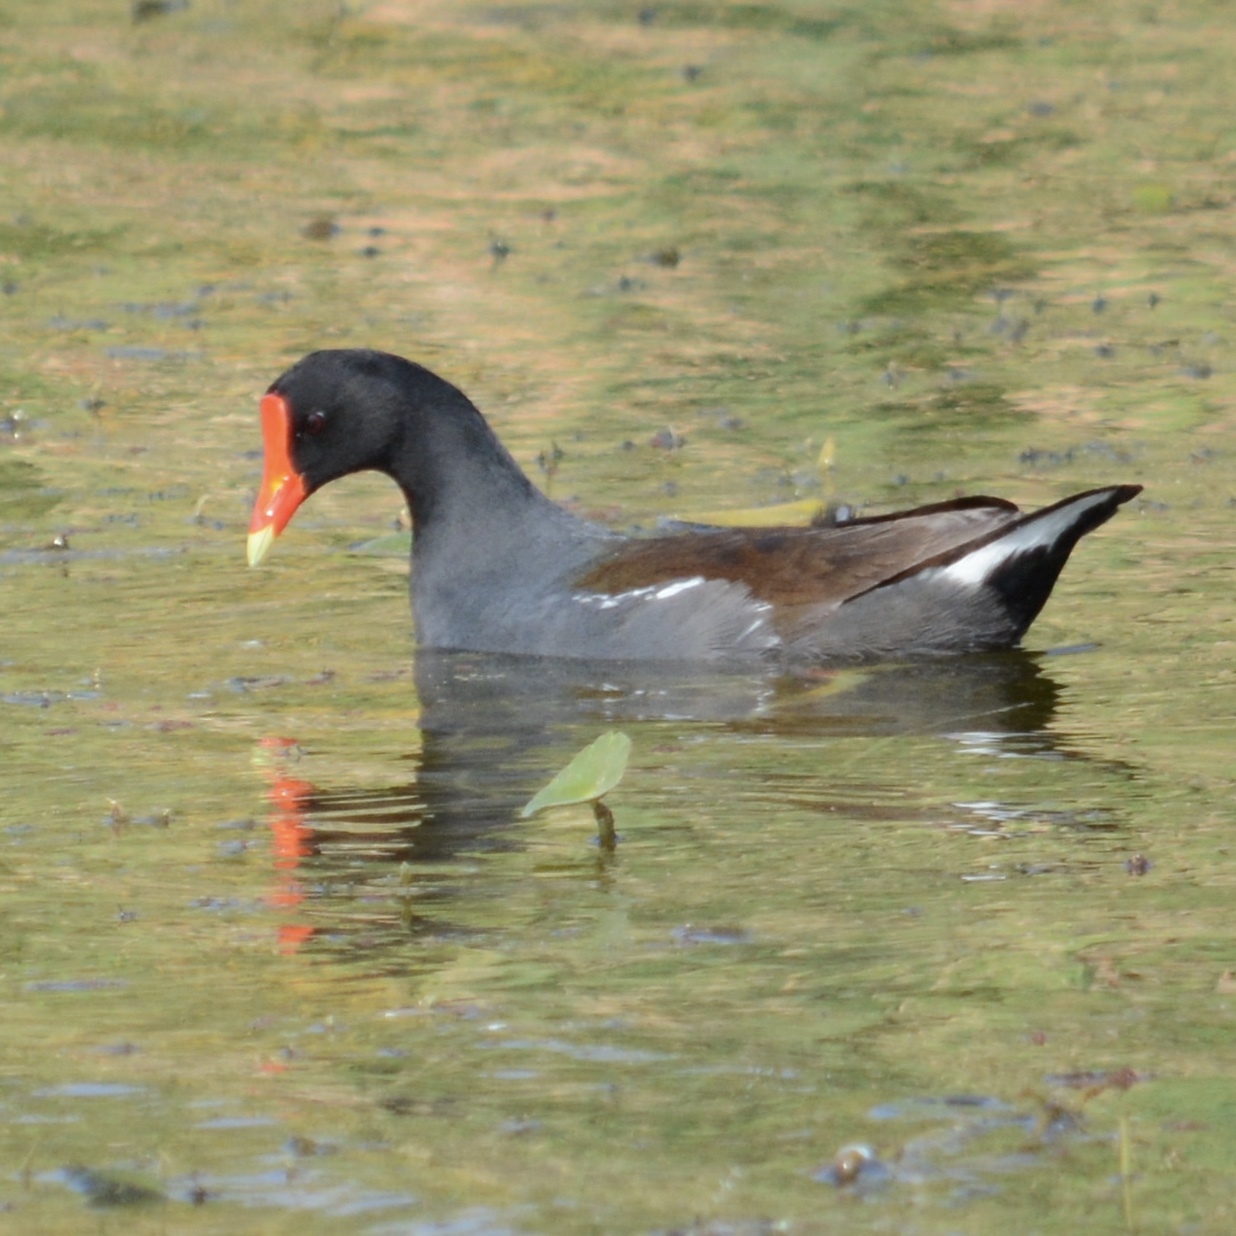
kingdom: Animalia
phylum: Chordata
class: Aves
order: Gruiformes
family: Rallidae
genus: Gallinula
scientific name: Gallinula chloropus
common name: Common moorhen
